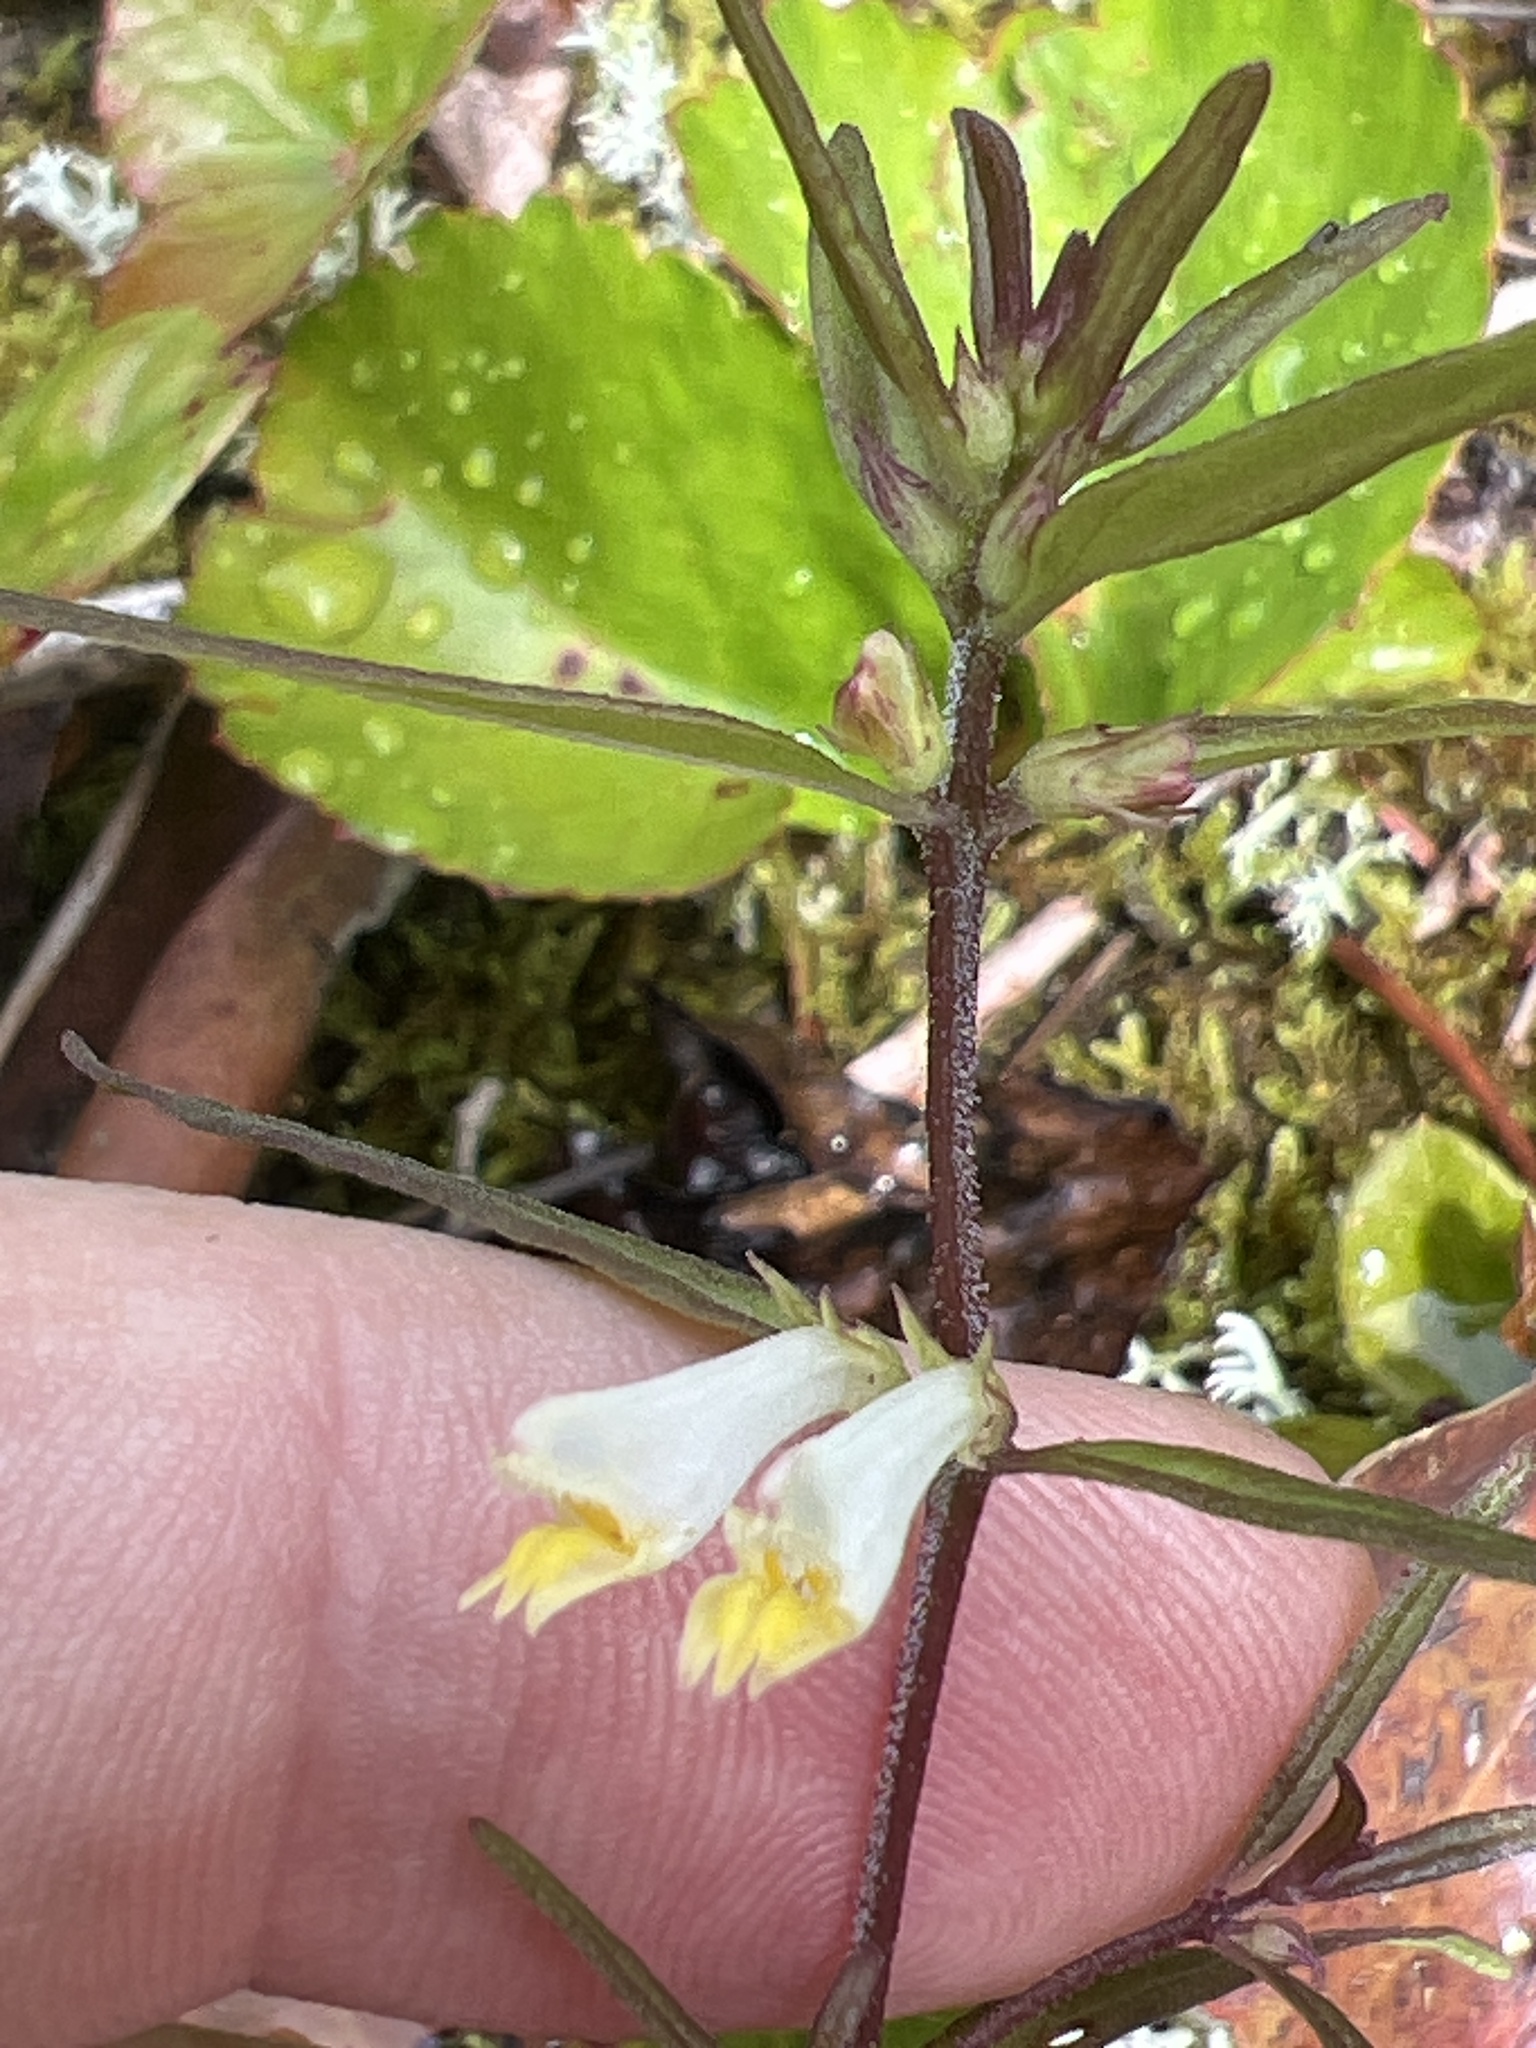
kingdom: Plantae
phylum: Tracheophyta
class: Magnoliopsida
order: Lamiales
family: Orobanchaceae
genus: Melampyrum
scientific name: Melampyrum lineare
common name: American cow-wheat
